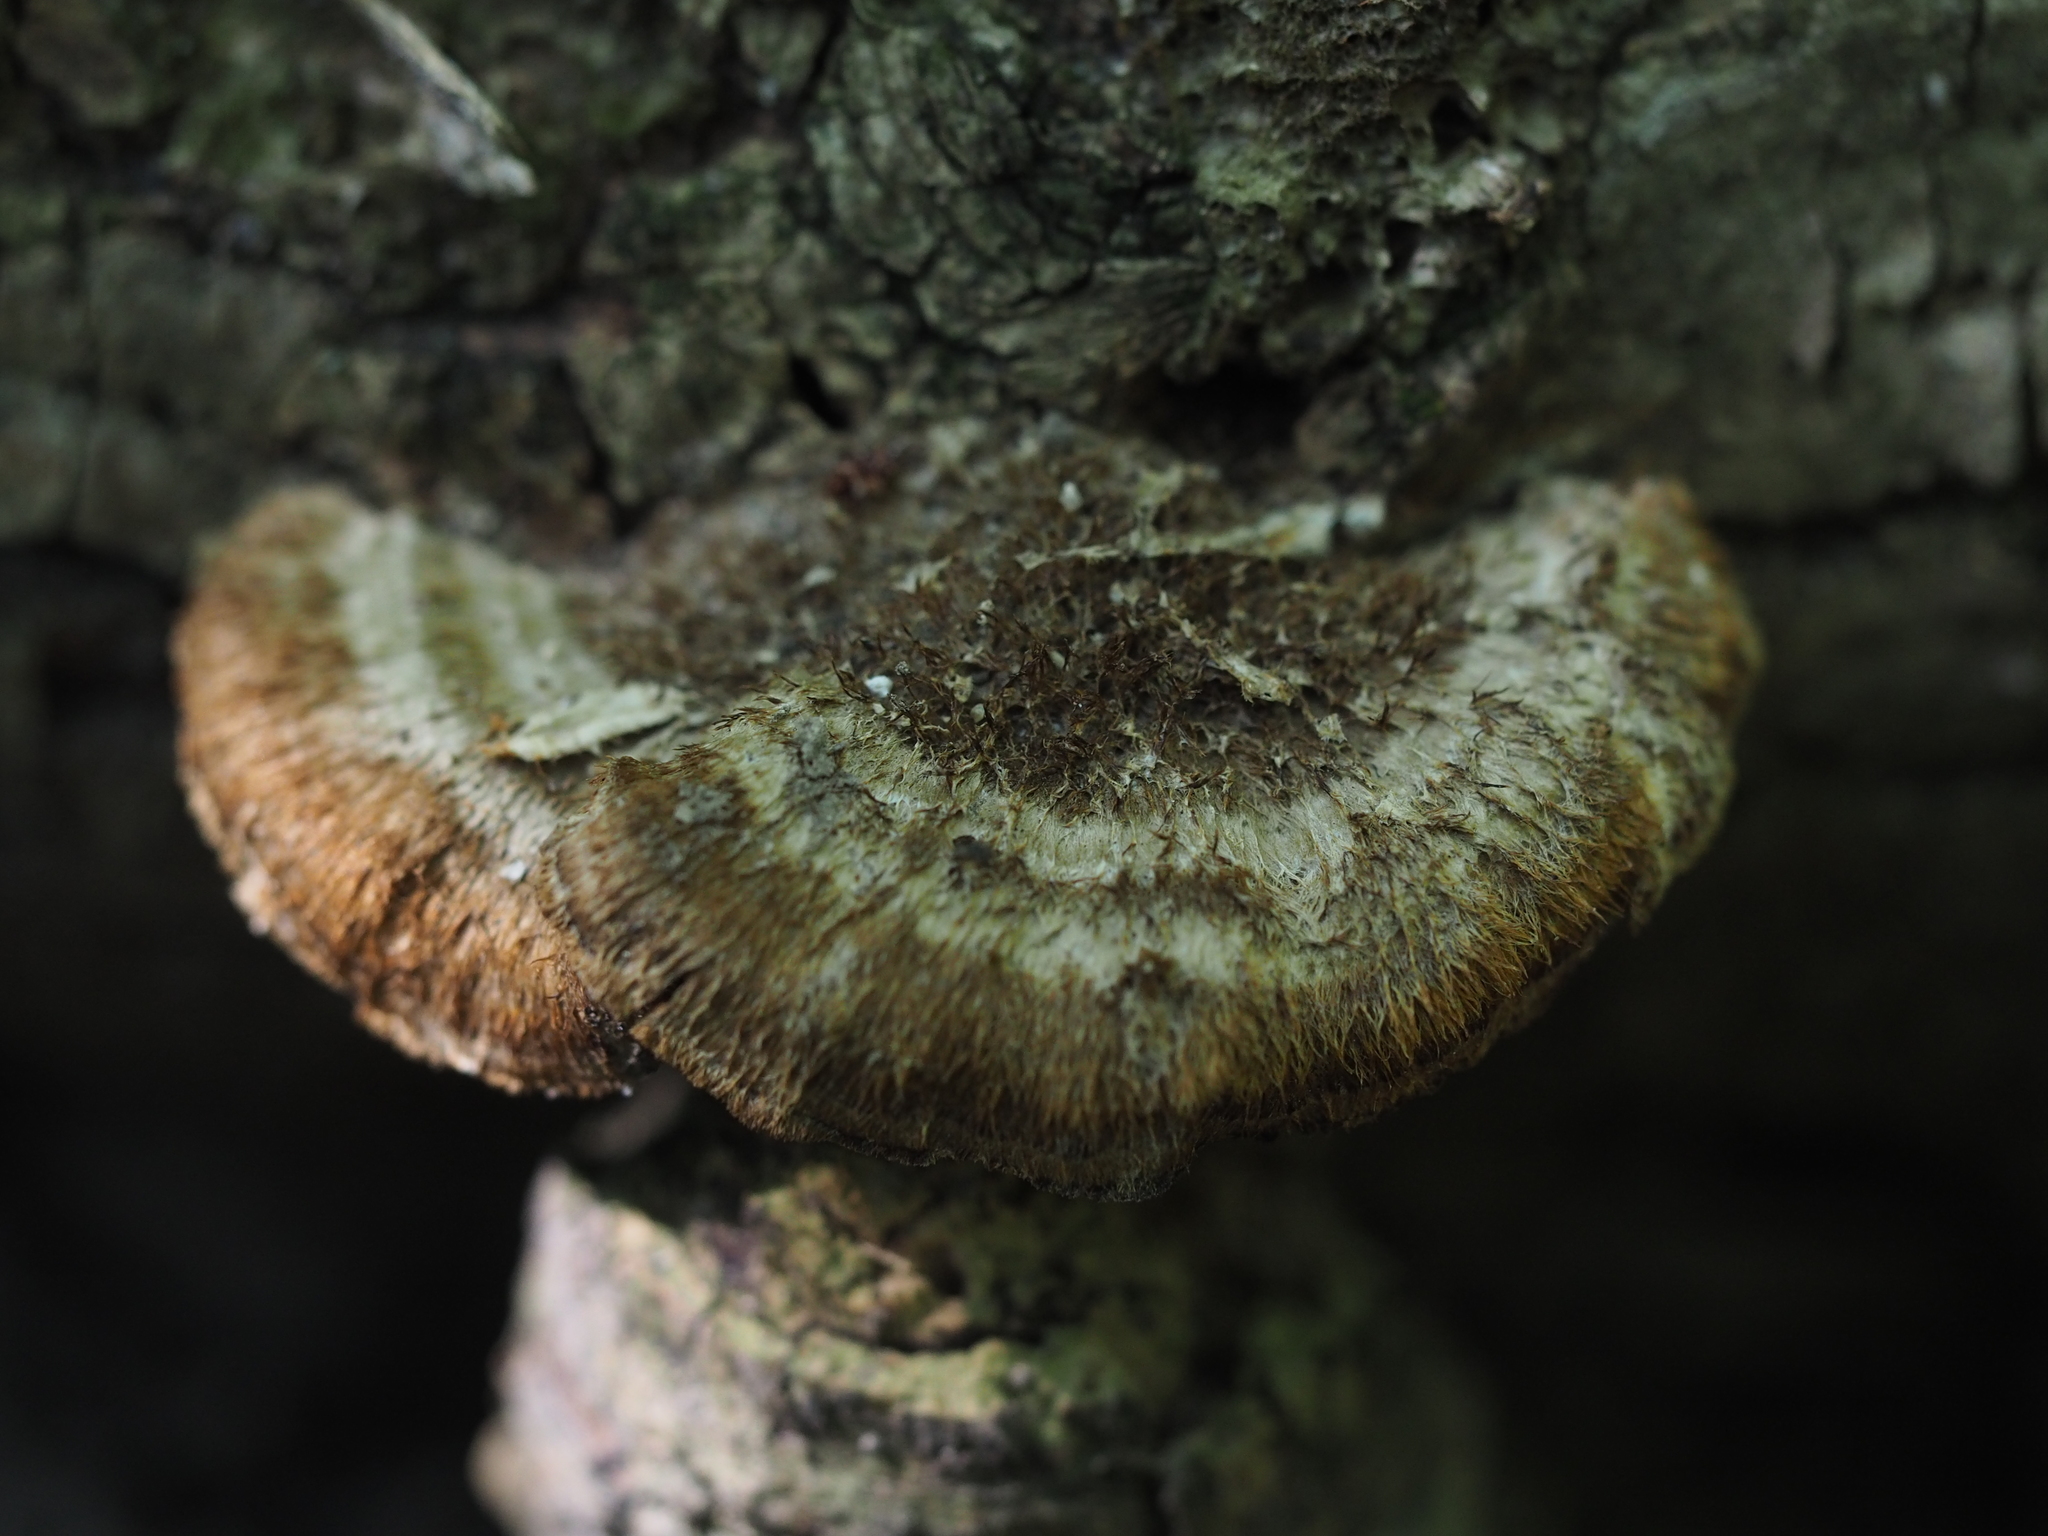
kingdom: Fungi
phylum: Basidiomycota
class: Agaricomycetes
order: Polyporales
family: Polyporaceae
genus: Coriolopsis
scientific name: Coriolopsis gallica
